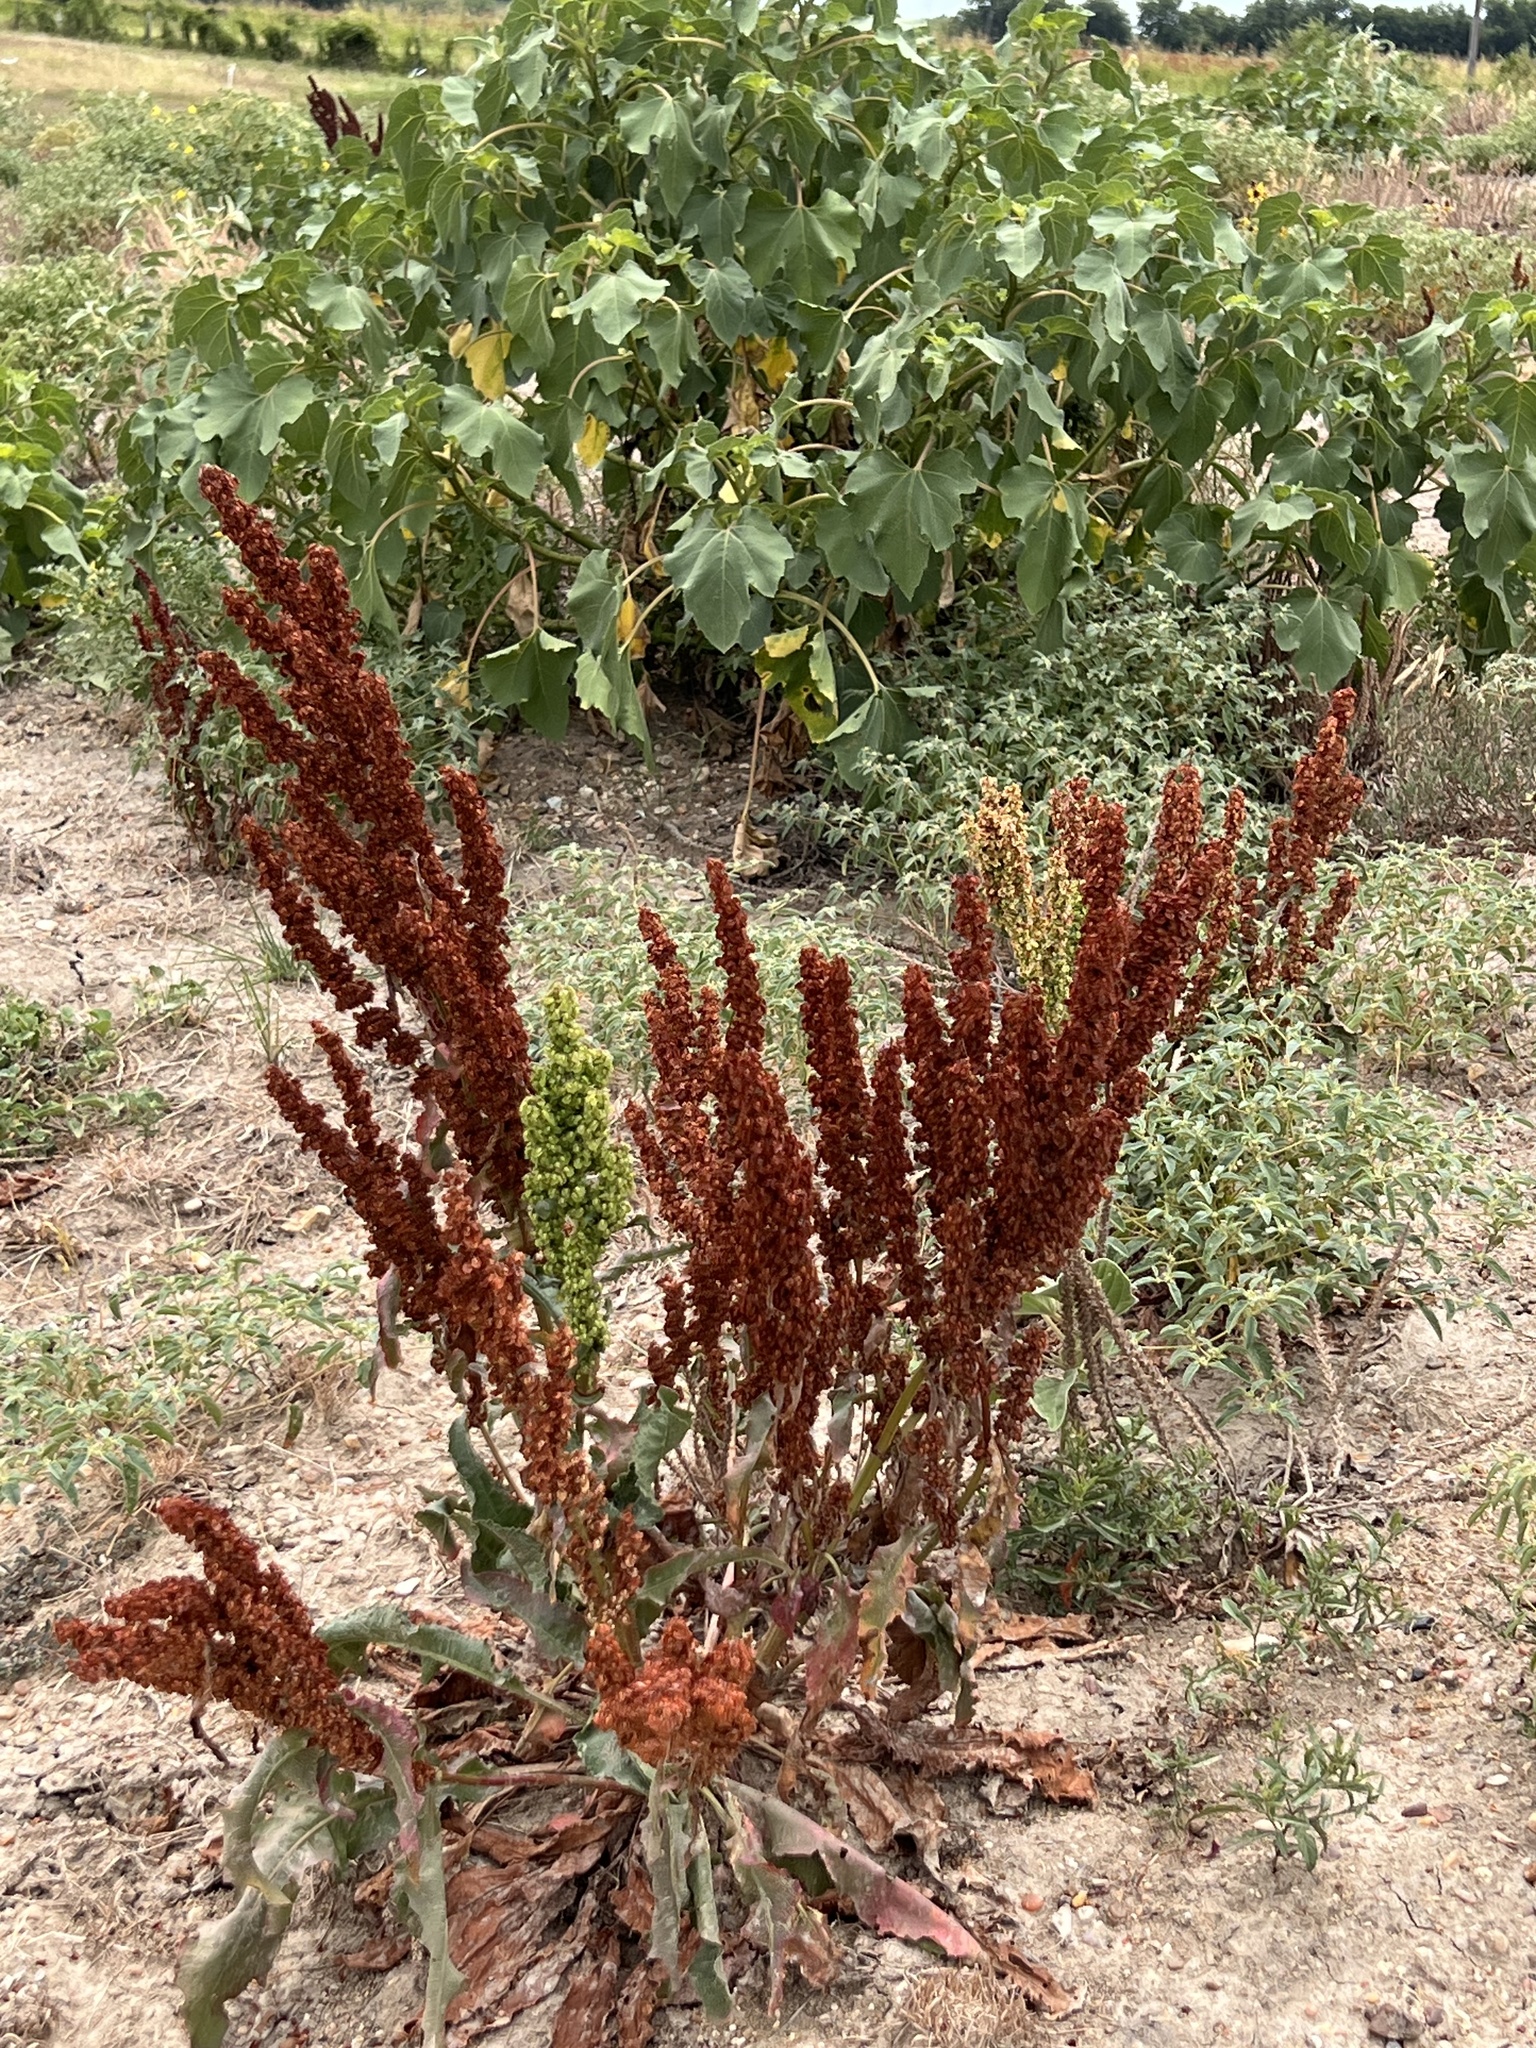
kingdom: Plantae
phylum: Tracheophyta
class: Magnoliopsida
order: Caryophyllales
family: Polygonaceae
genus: Rumex
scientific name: Rumex crispus
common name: Curled dock
